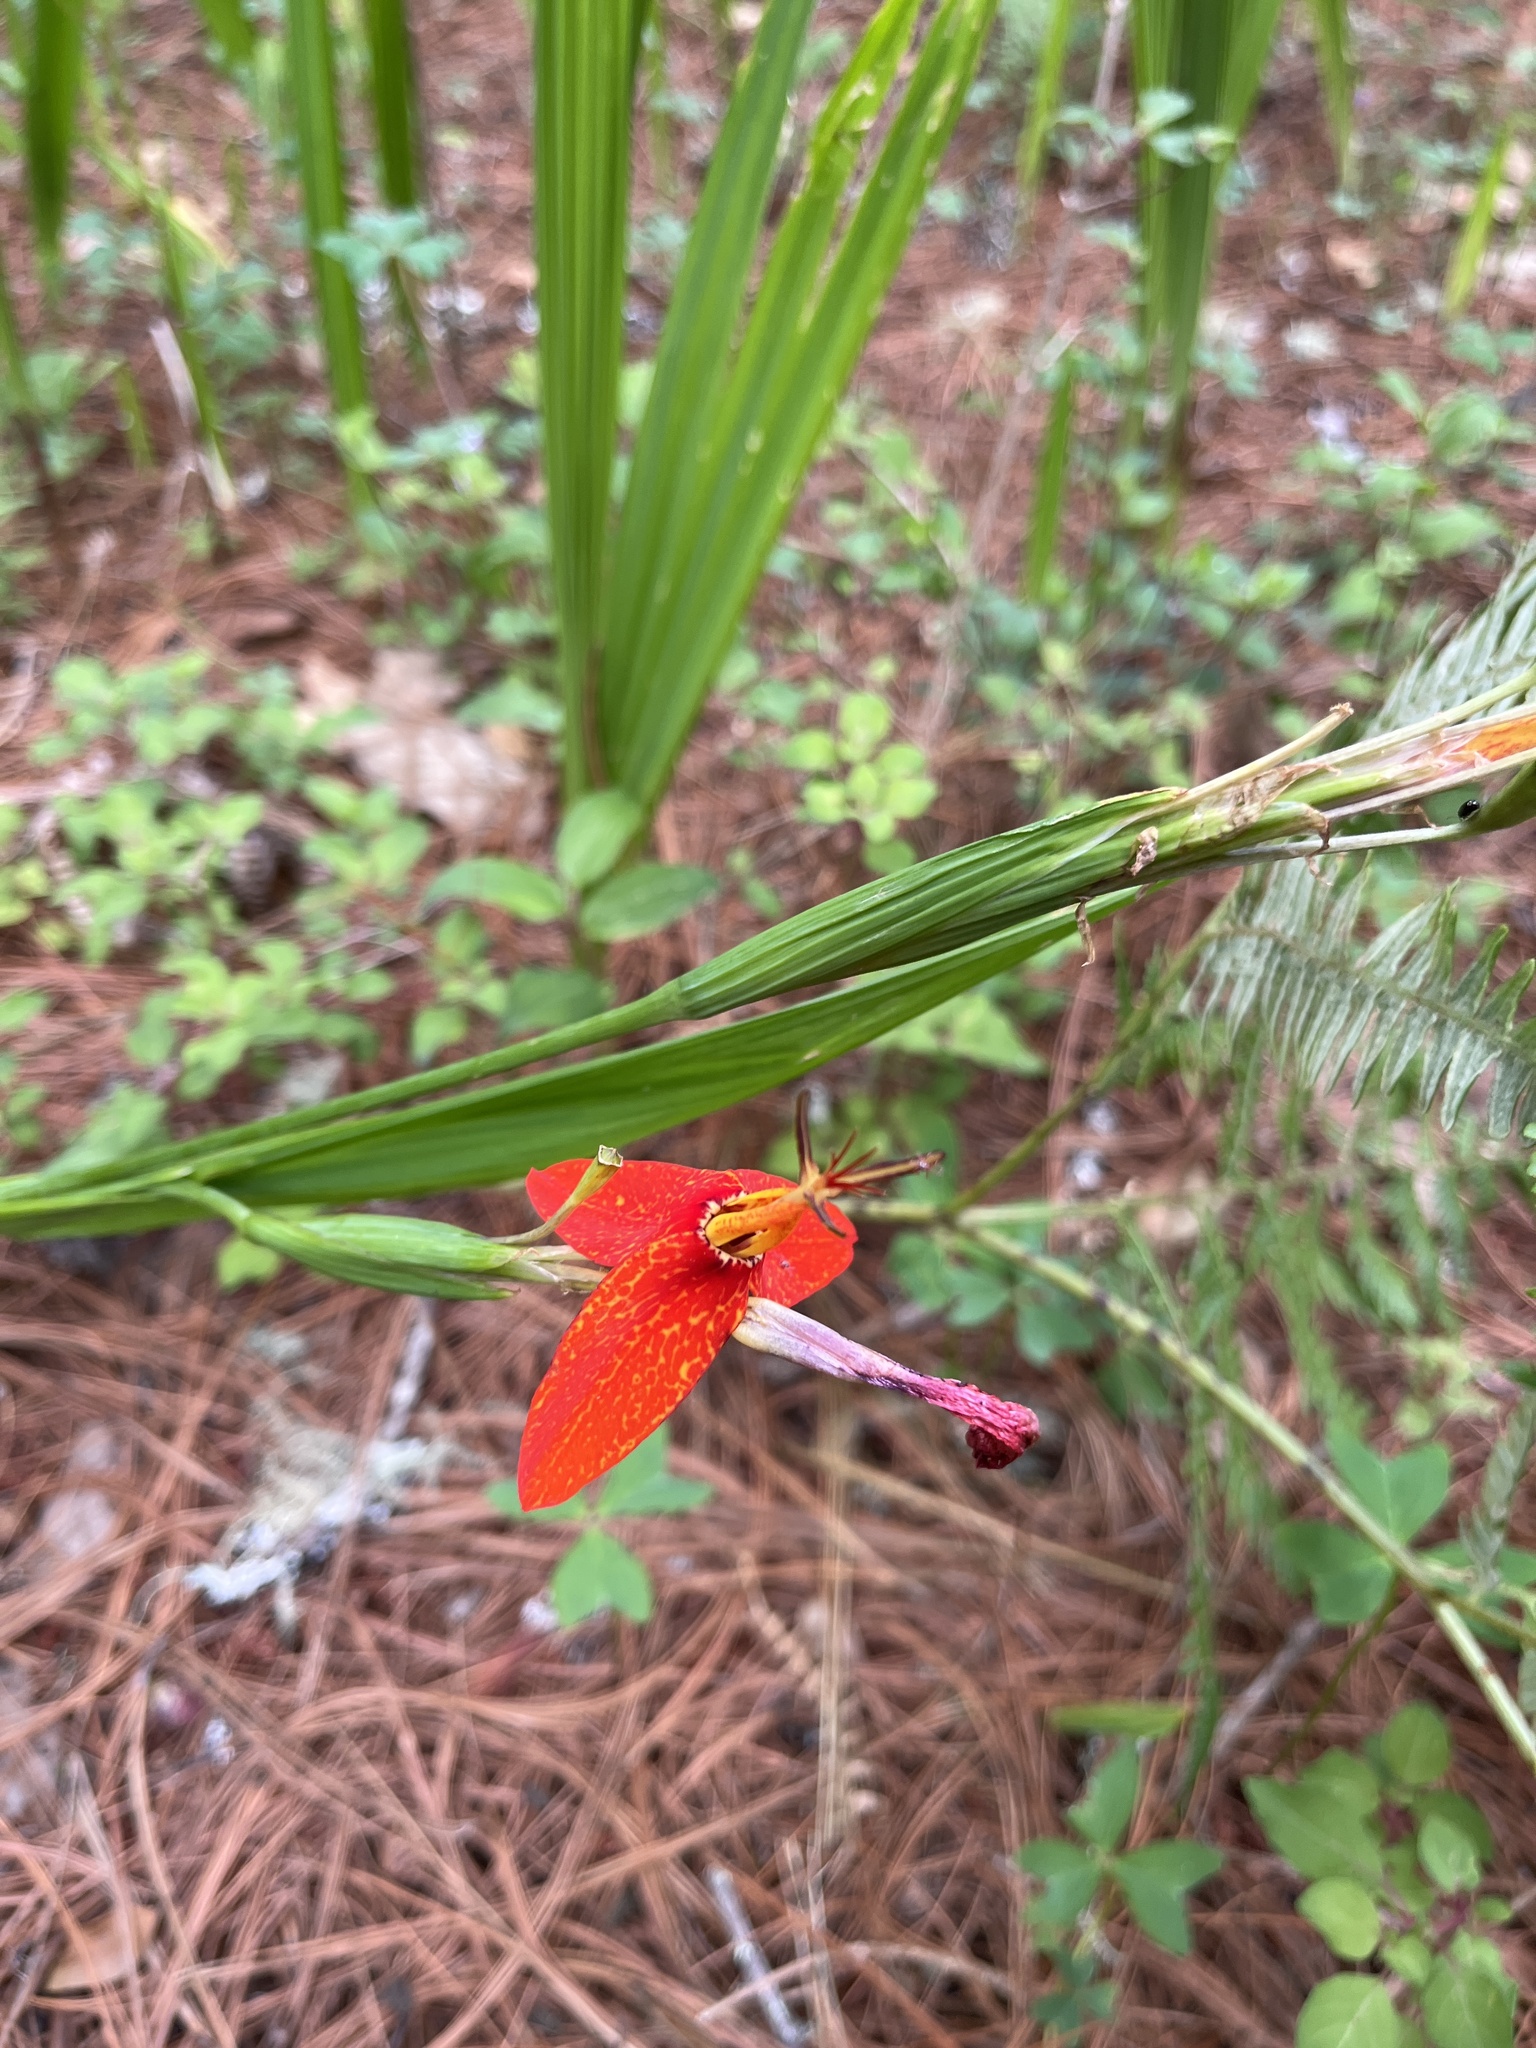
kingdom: Plantae
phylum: Tracheophyta
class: Liliopsida
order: Asparagales
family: Iridaceae
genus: Tigridia
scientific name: Tigridia orthantha
